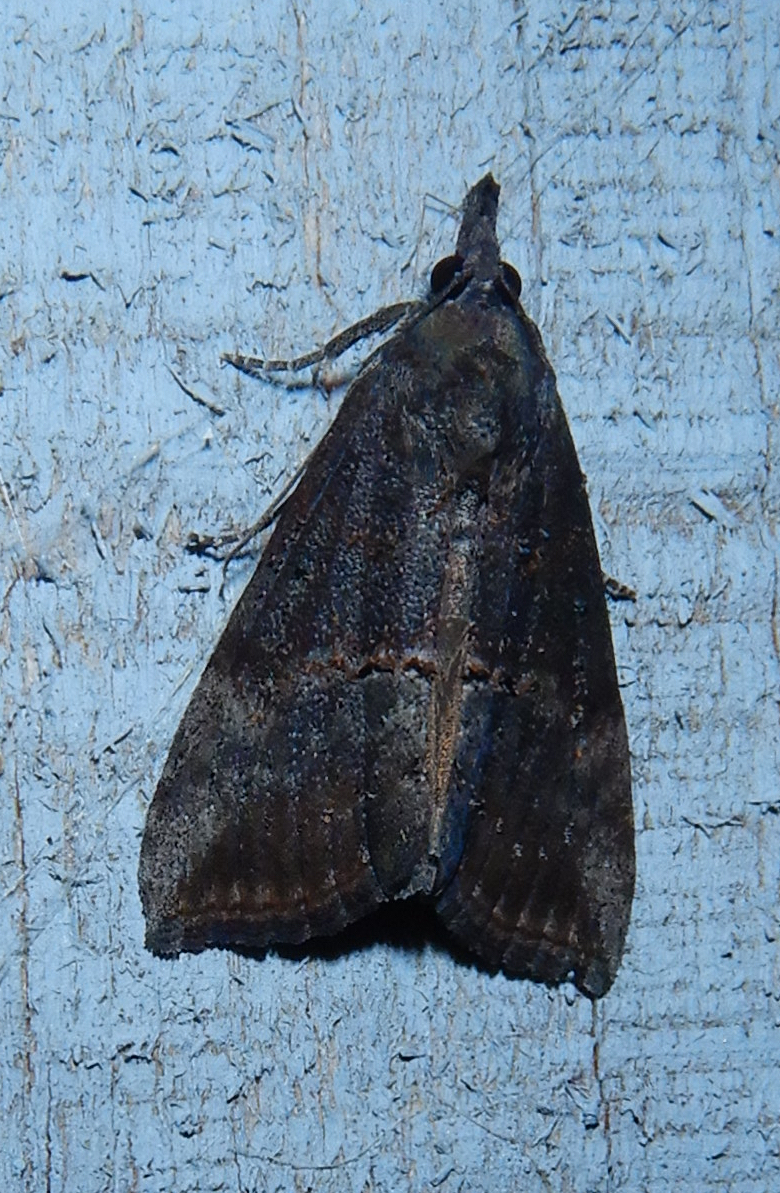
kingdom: Animalia
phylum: Arthropoda
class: Insecta
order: Lepidoptera
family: Erebidae
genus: Hypena
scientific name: Hypena scabra
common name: Green cloverworm
